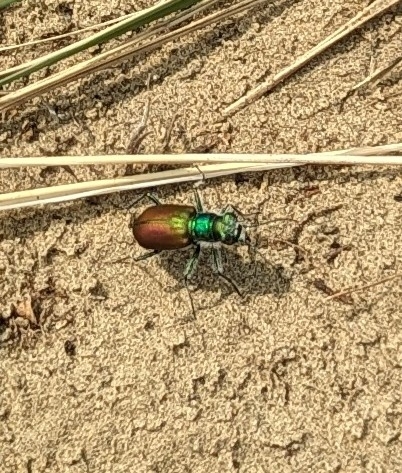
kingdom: Animalia
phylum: Arthropoda
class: Insecta
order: Coleoptera
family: Carabidae
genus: Cicindela
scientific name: Cicindela scutellaris
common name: Festive tiger beetle
